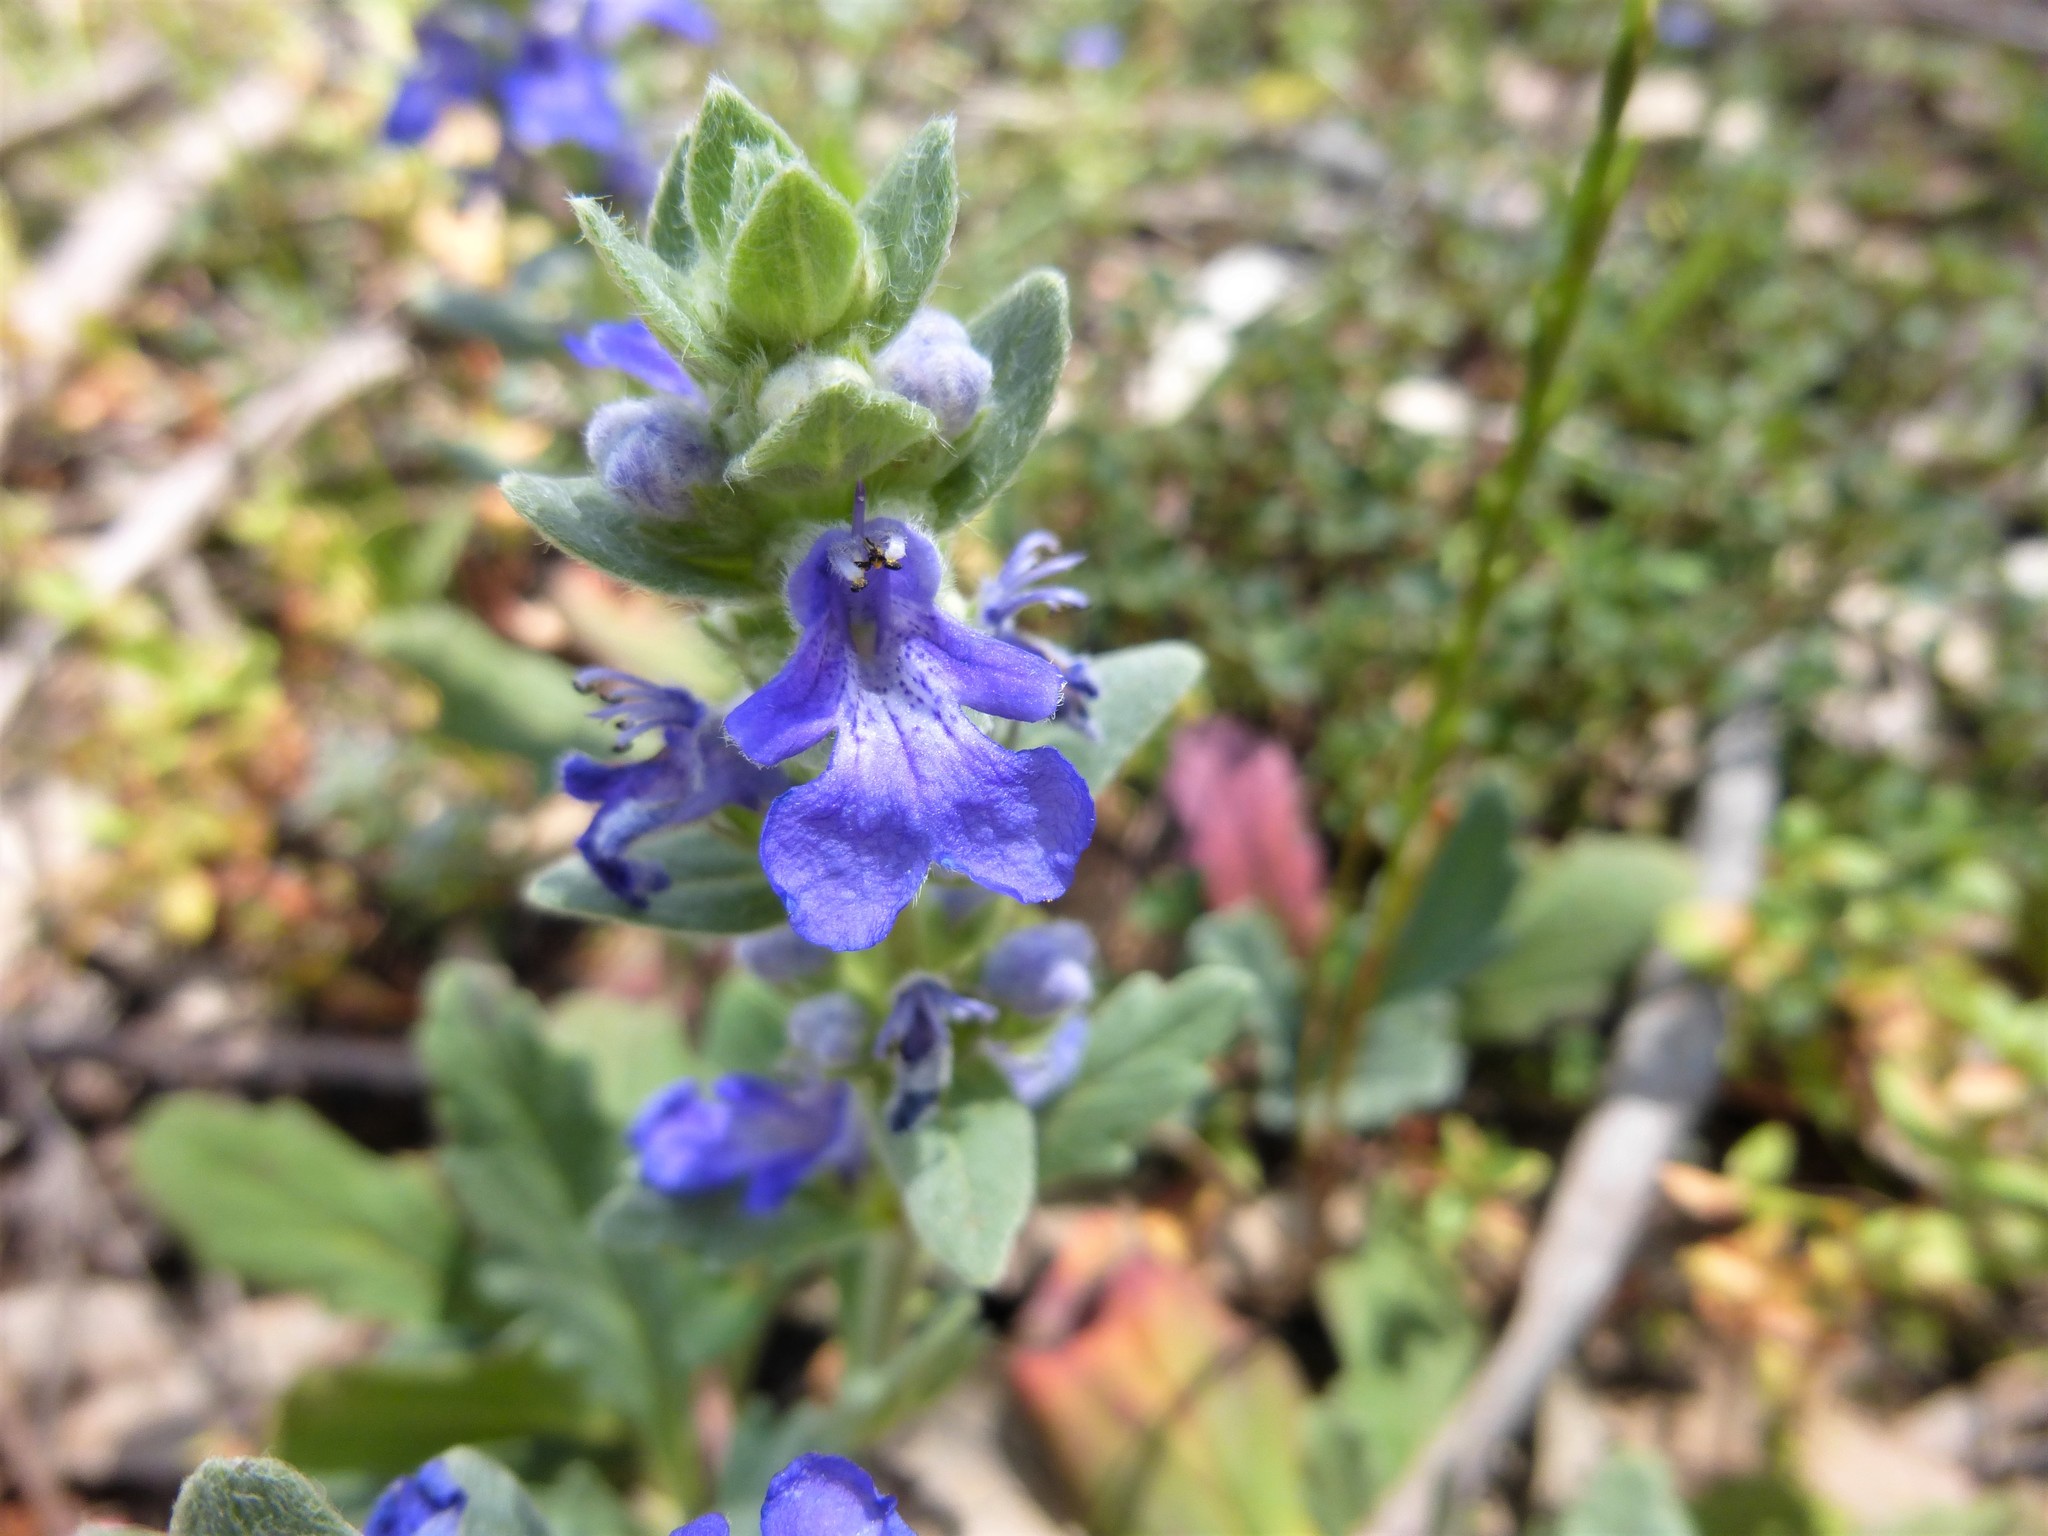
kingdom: Plantae
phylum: Tracheophyta
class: Magnoliopsida
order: Lamiales
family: Lamiaceae
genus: Ajuga
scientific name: Ajuga australis
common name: Australian bugle
